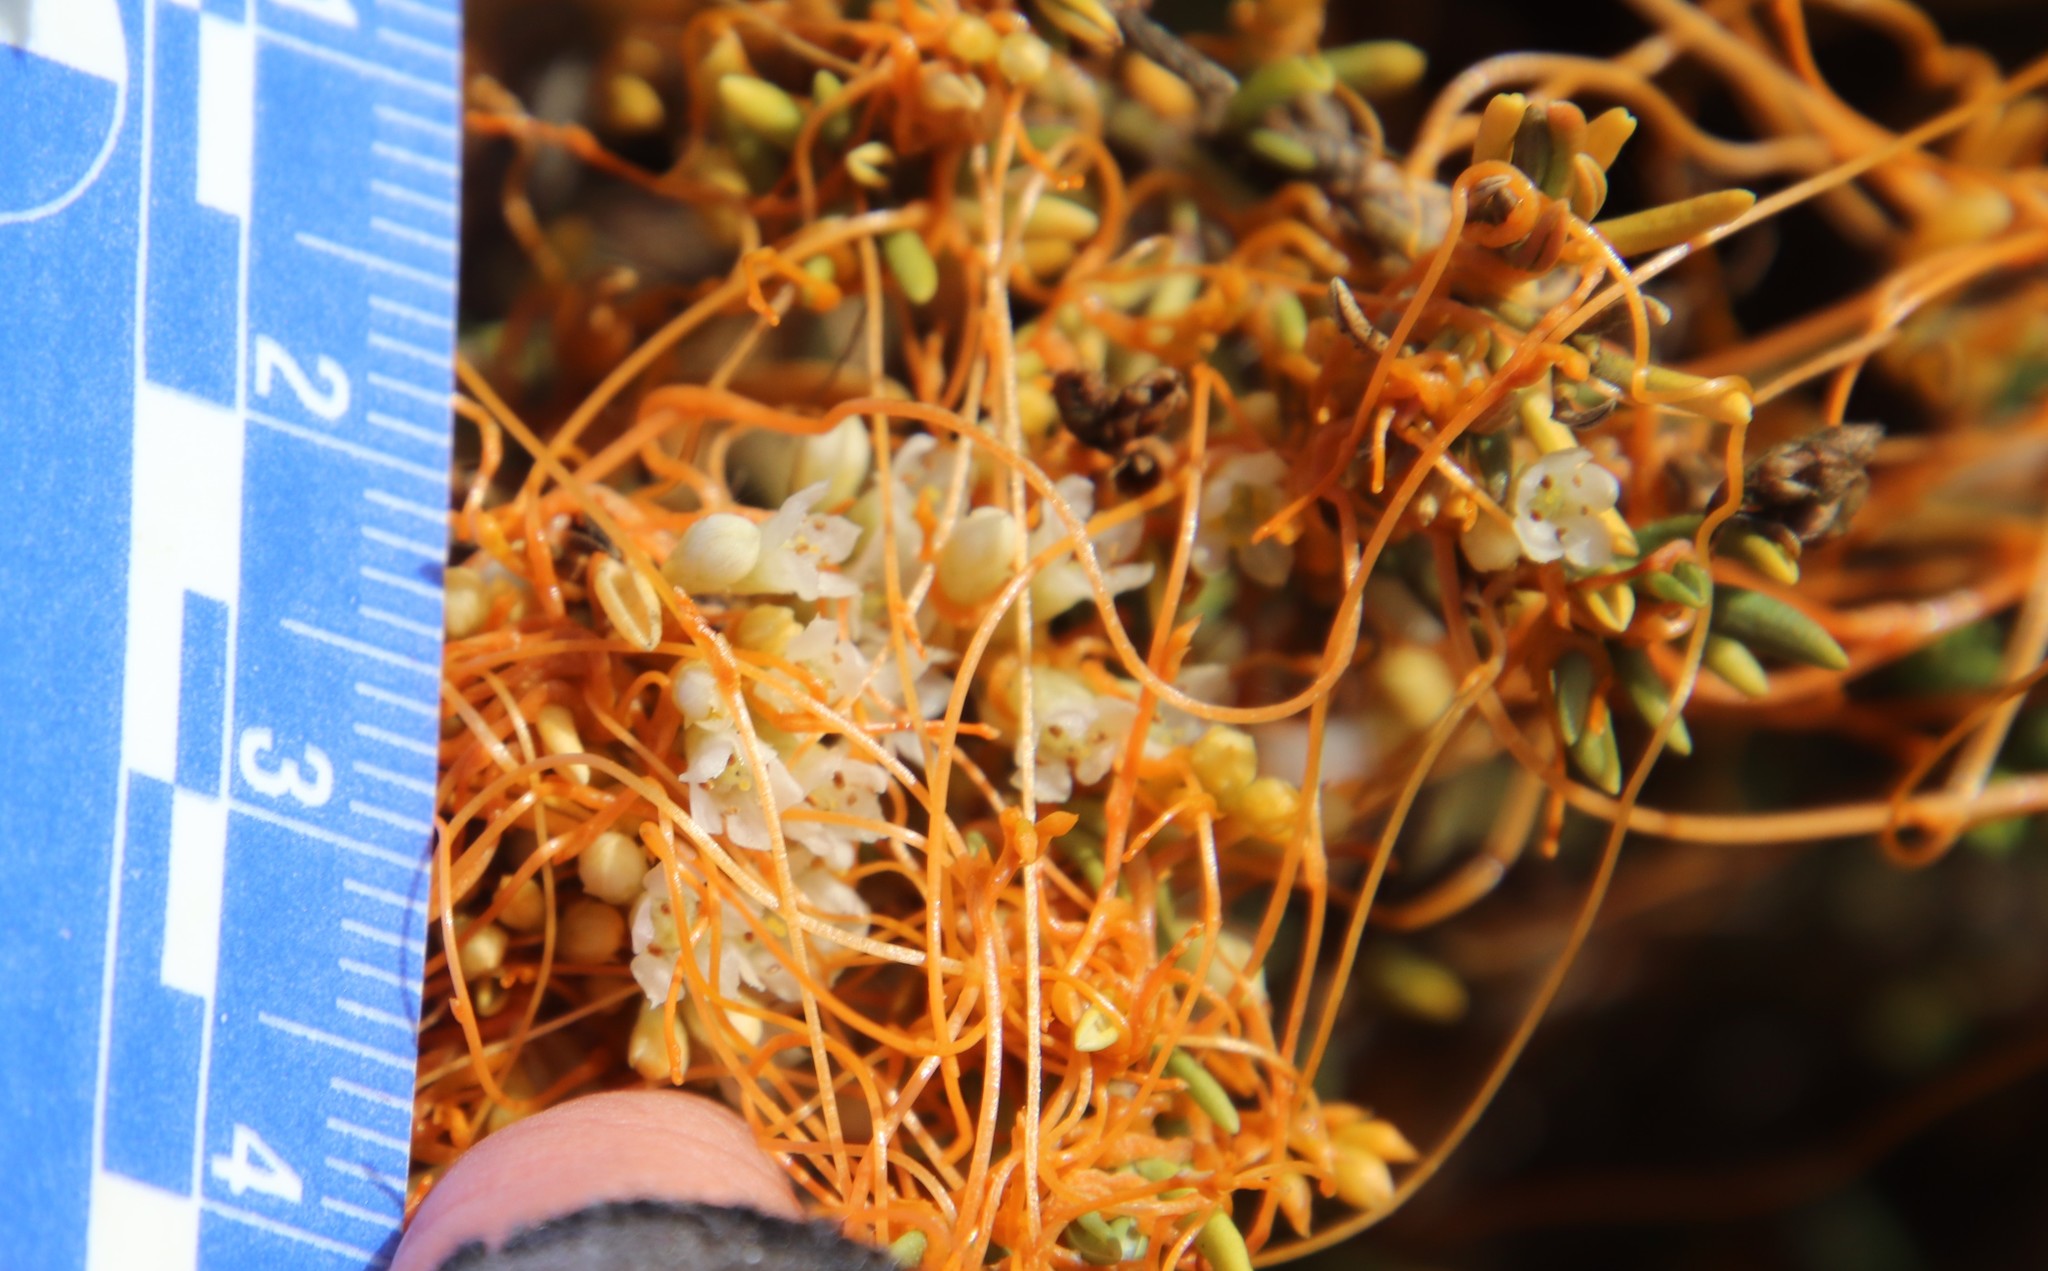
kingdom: Plantae
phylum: Tracheophyta
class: Magnoliopsida
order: Solanales
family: Convolvulaceae
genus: Cuscuta
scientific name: Cuscuta pacifica
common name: Large saltmarsh dodder
